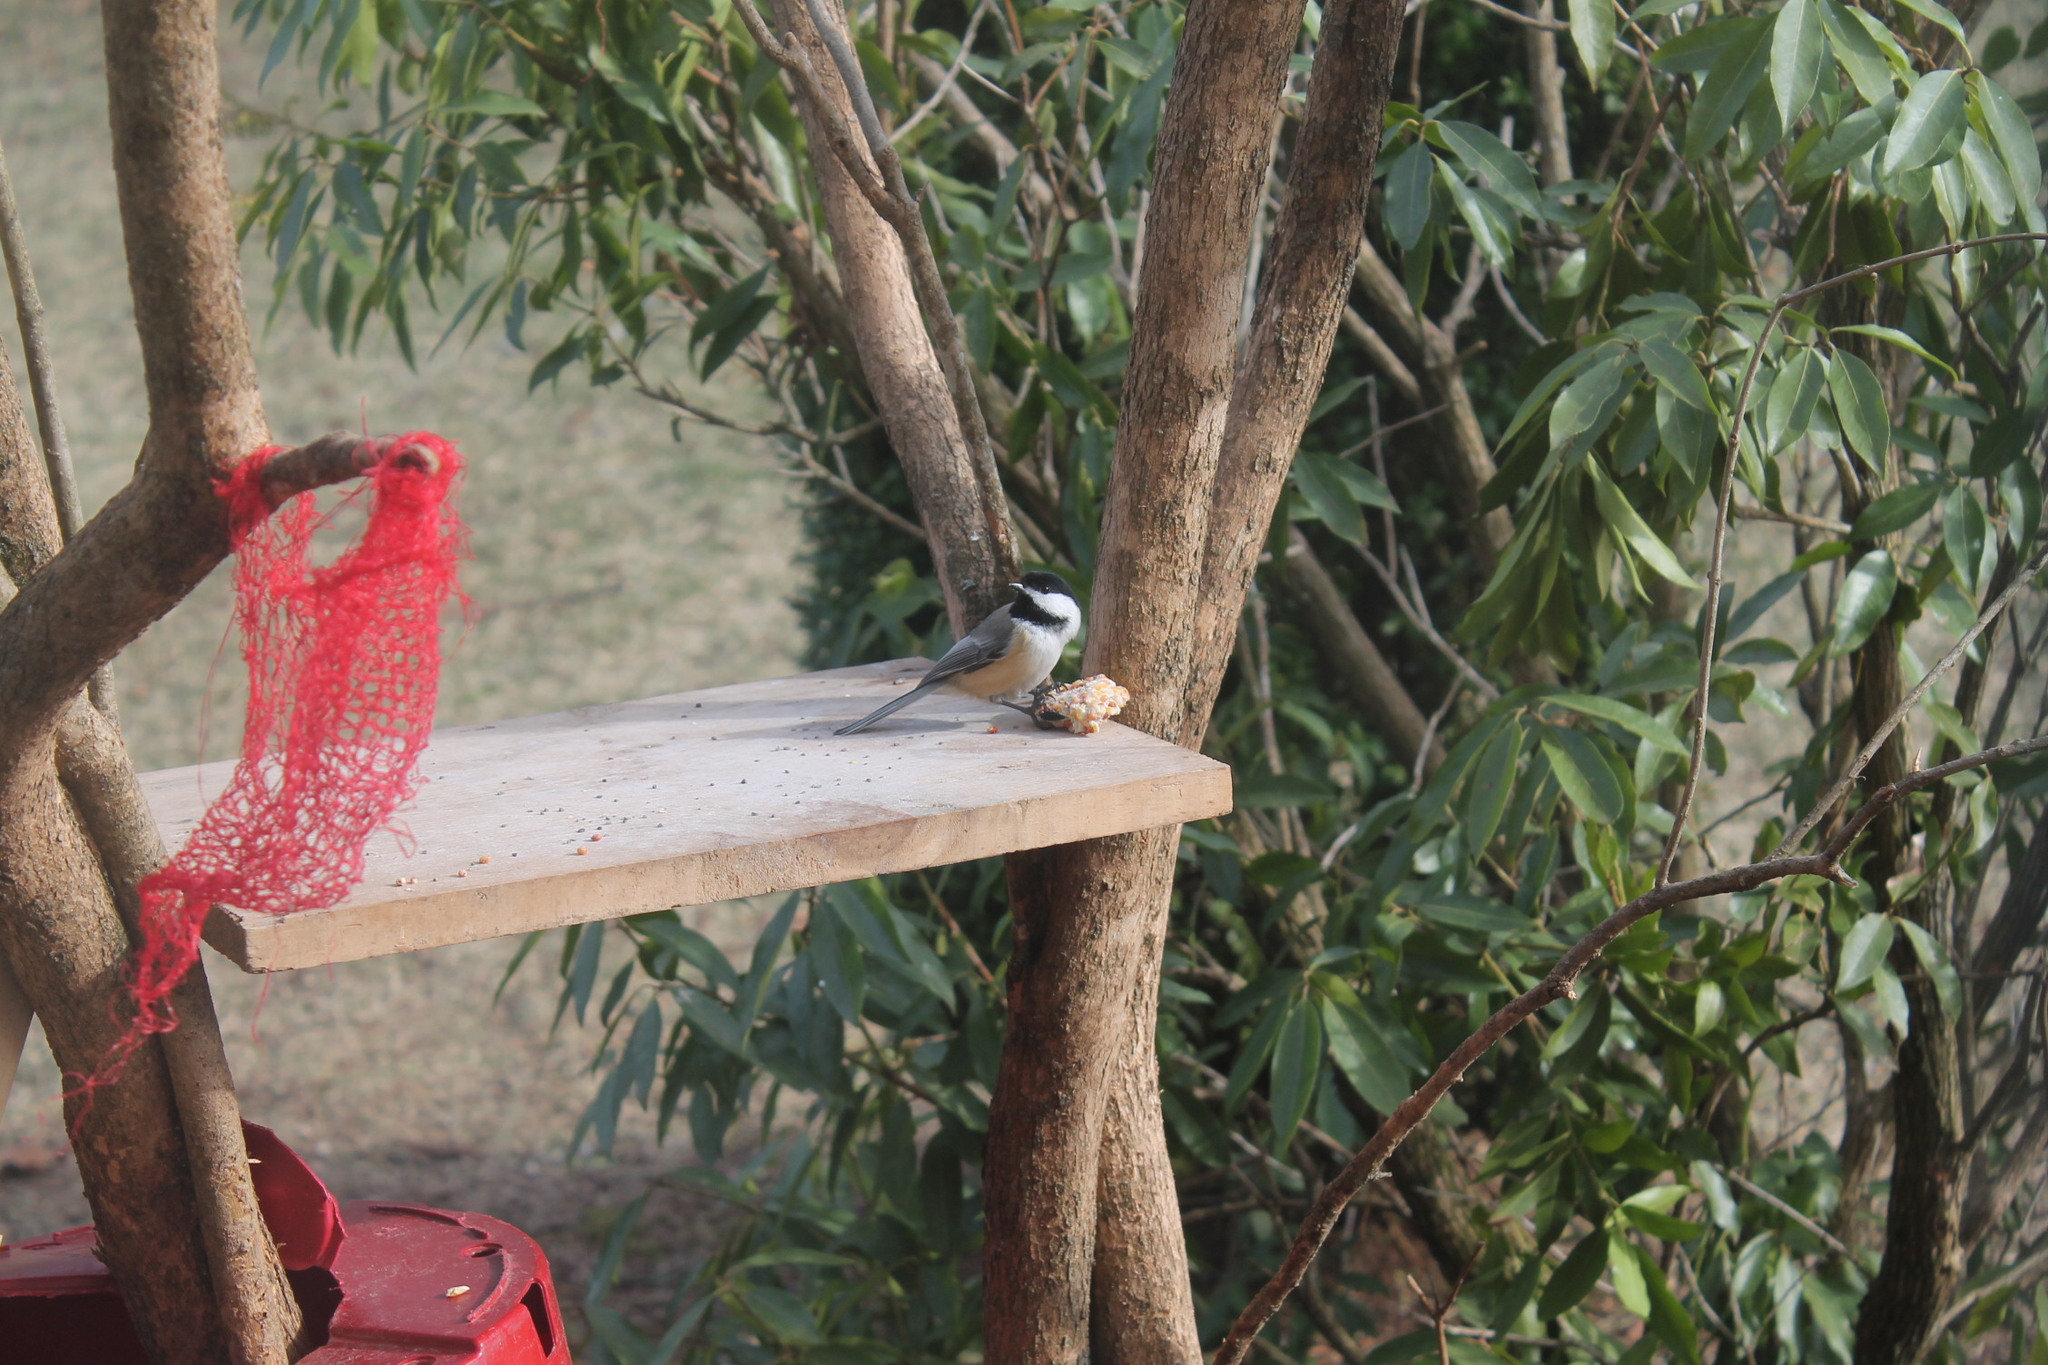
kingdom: Animalia
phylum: Chordata
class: Aves
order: Passeriformes
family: Paridae
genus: Poecile
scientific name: Poecile atricapillus
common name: Black-capped chickadee
